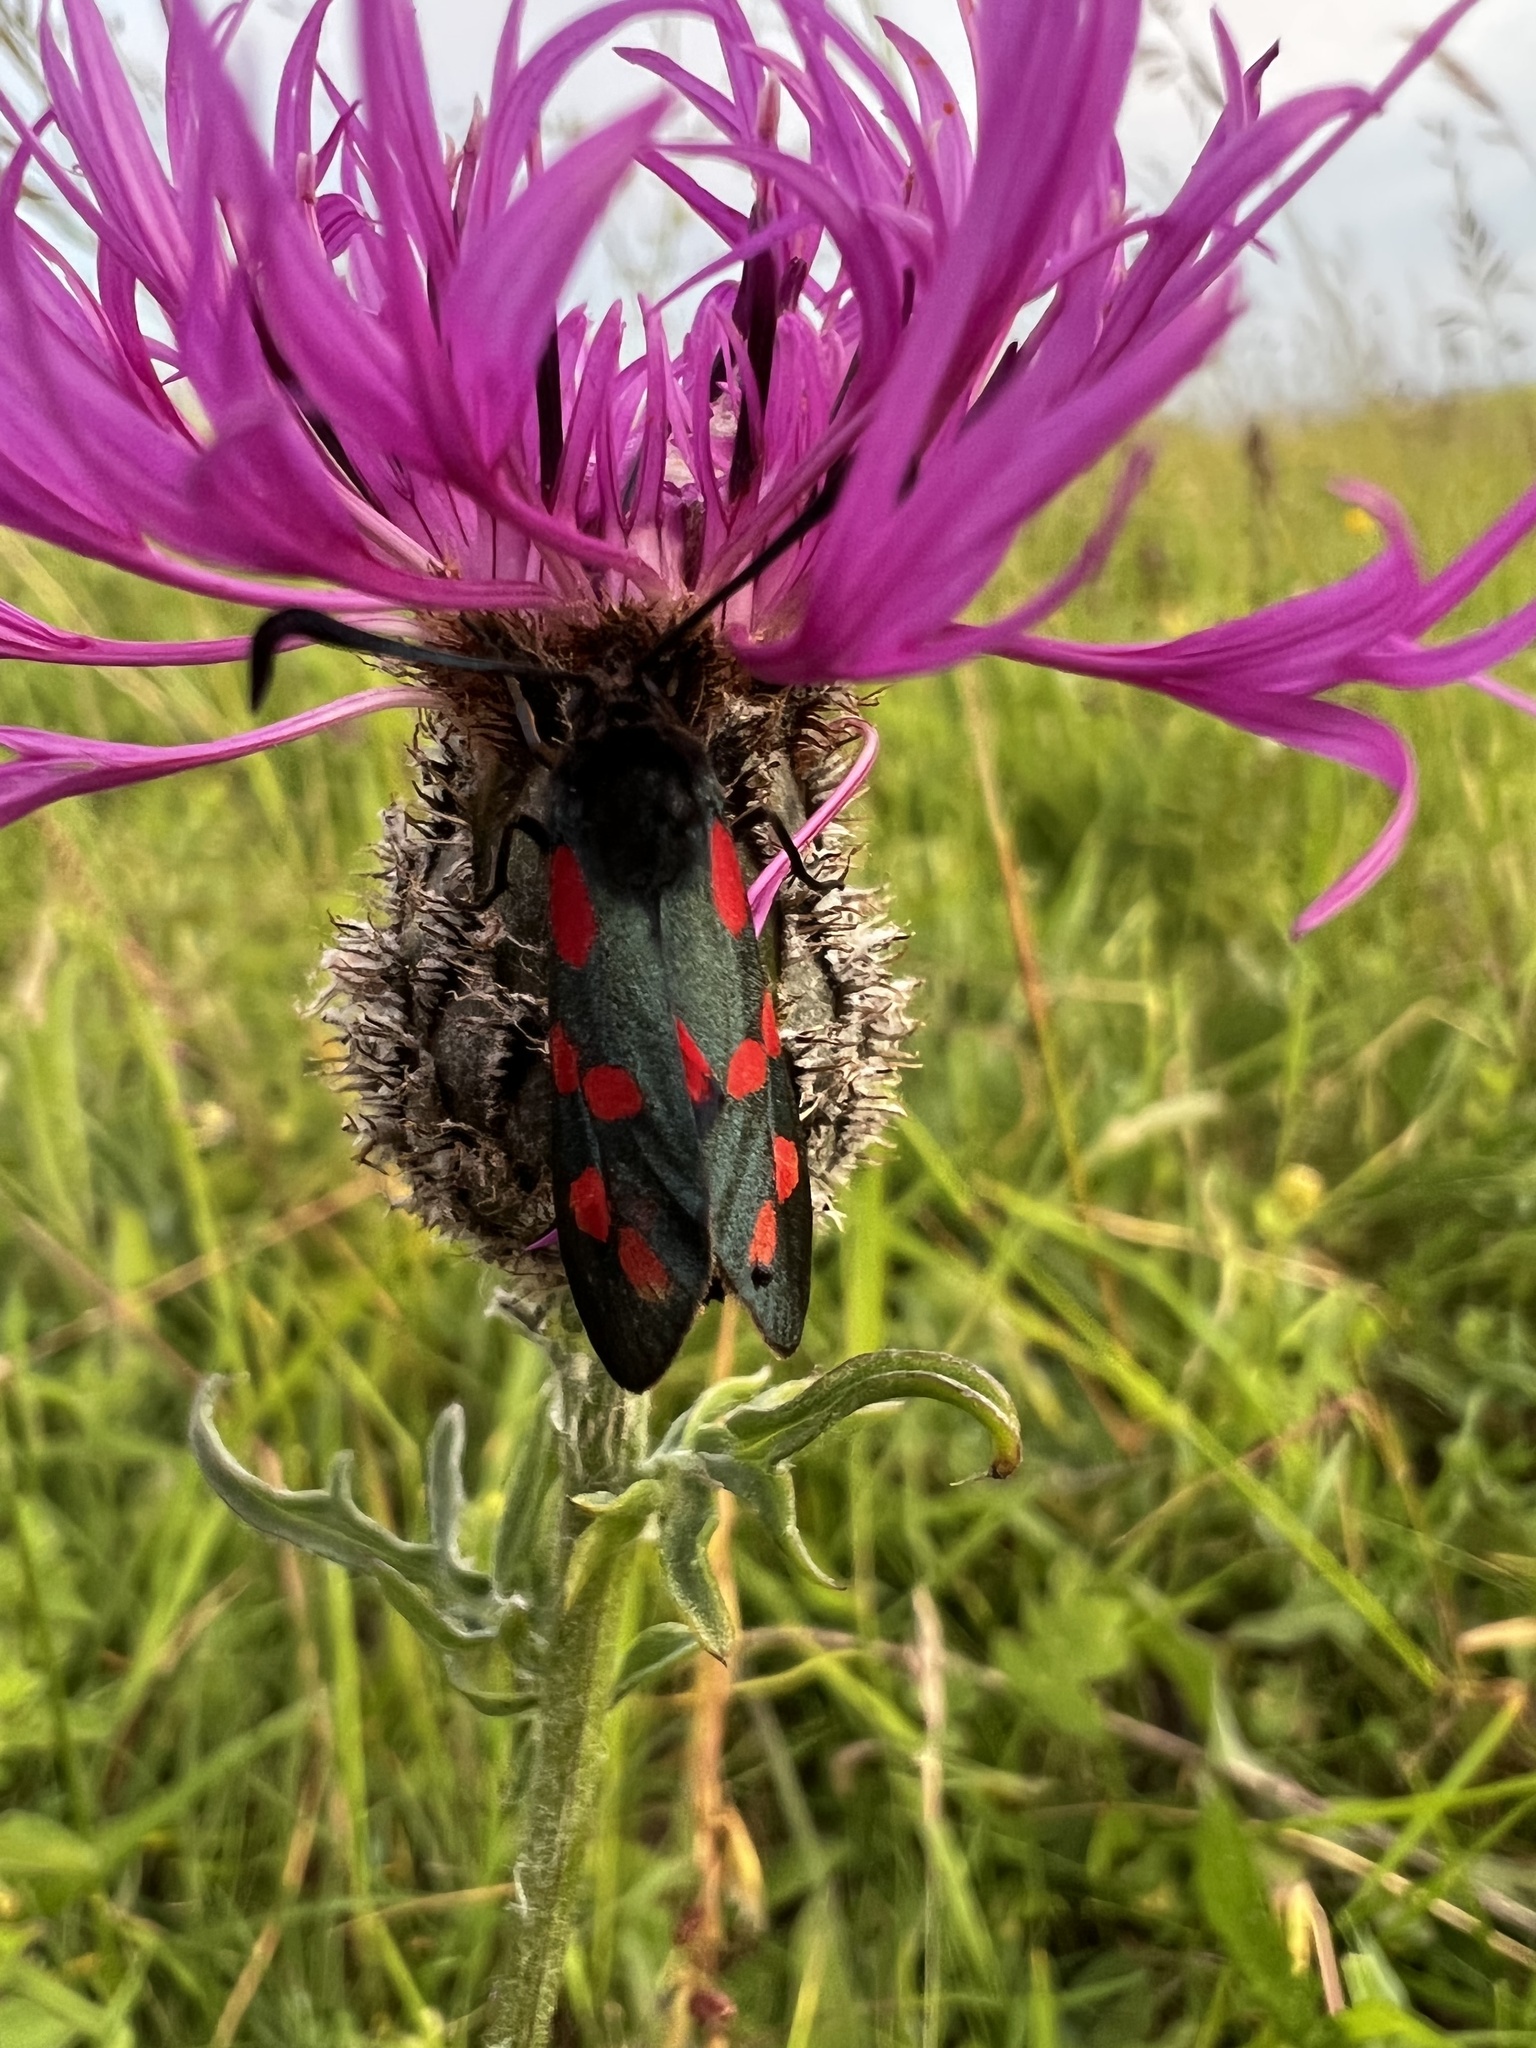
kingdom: Animalia
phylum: Arthropoda
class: Insecta
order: Lepidoptera
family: Zygaenidae
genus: Zygaena
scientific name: Zygaena filipendulae
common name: Six-spot burnet
